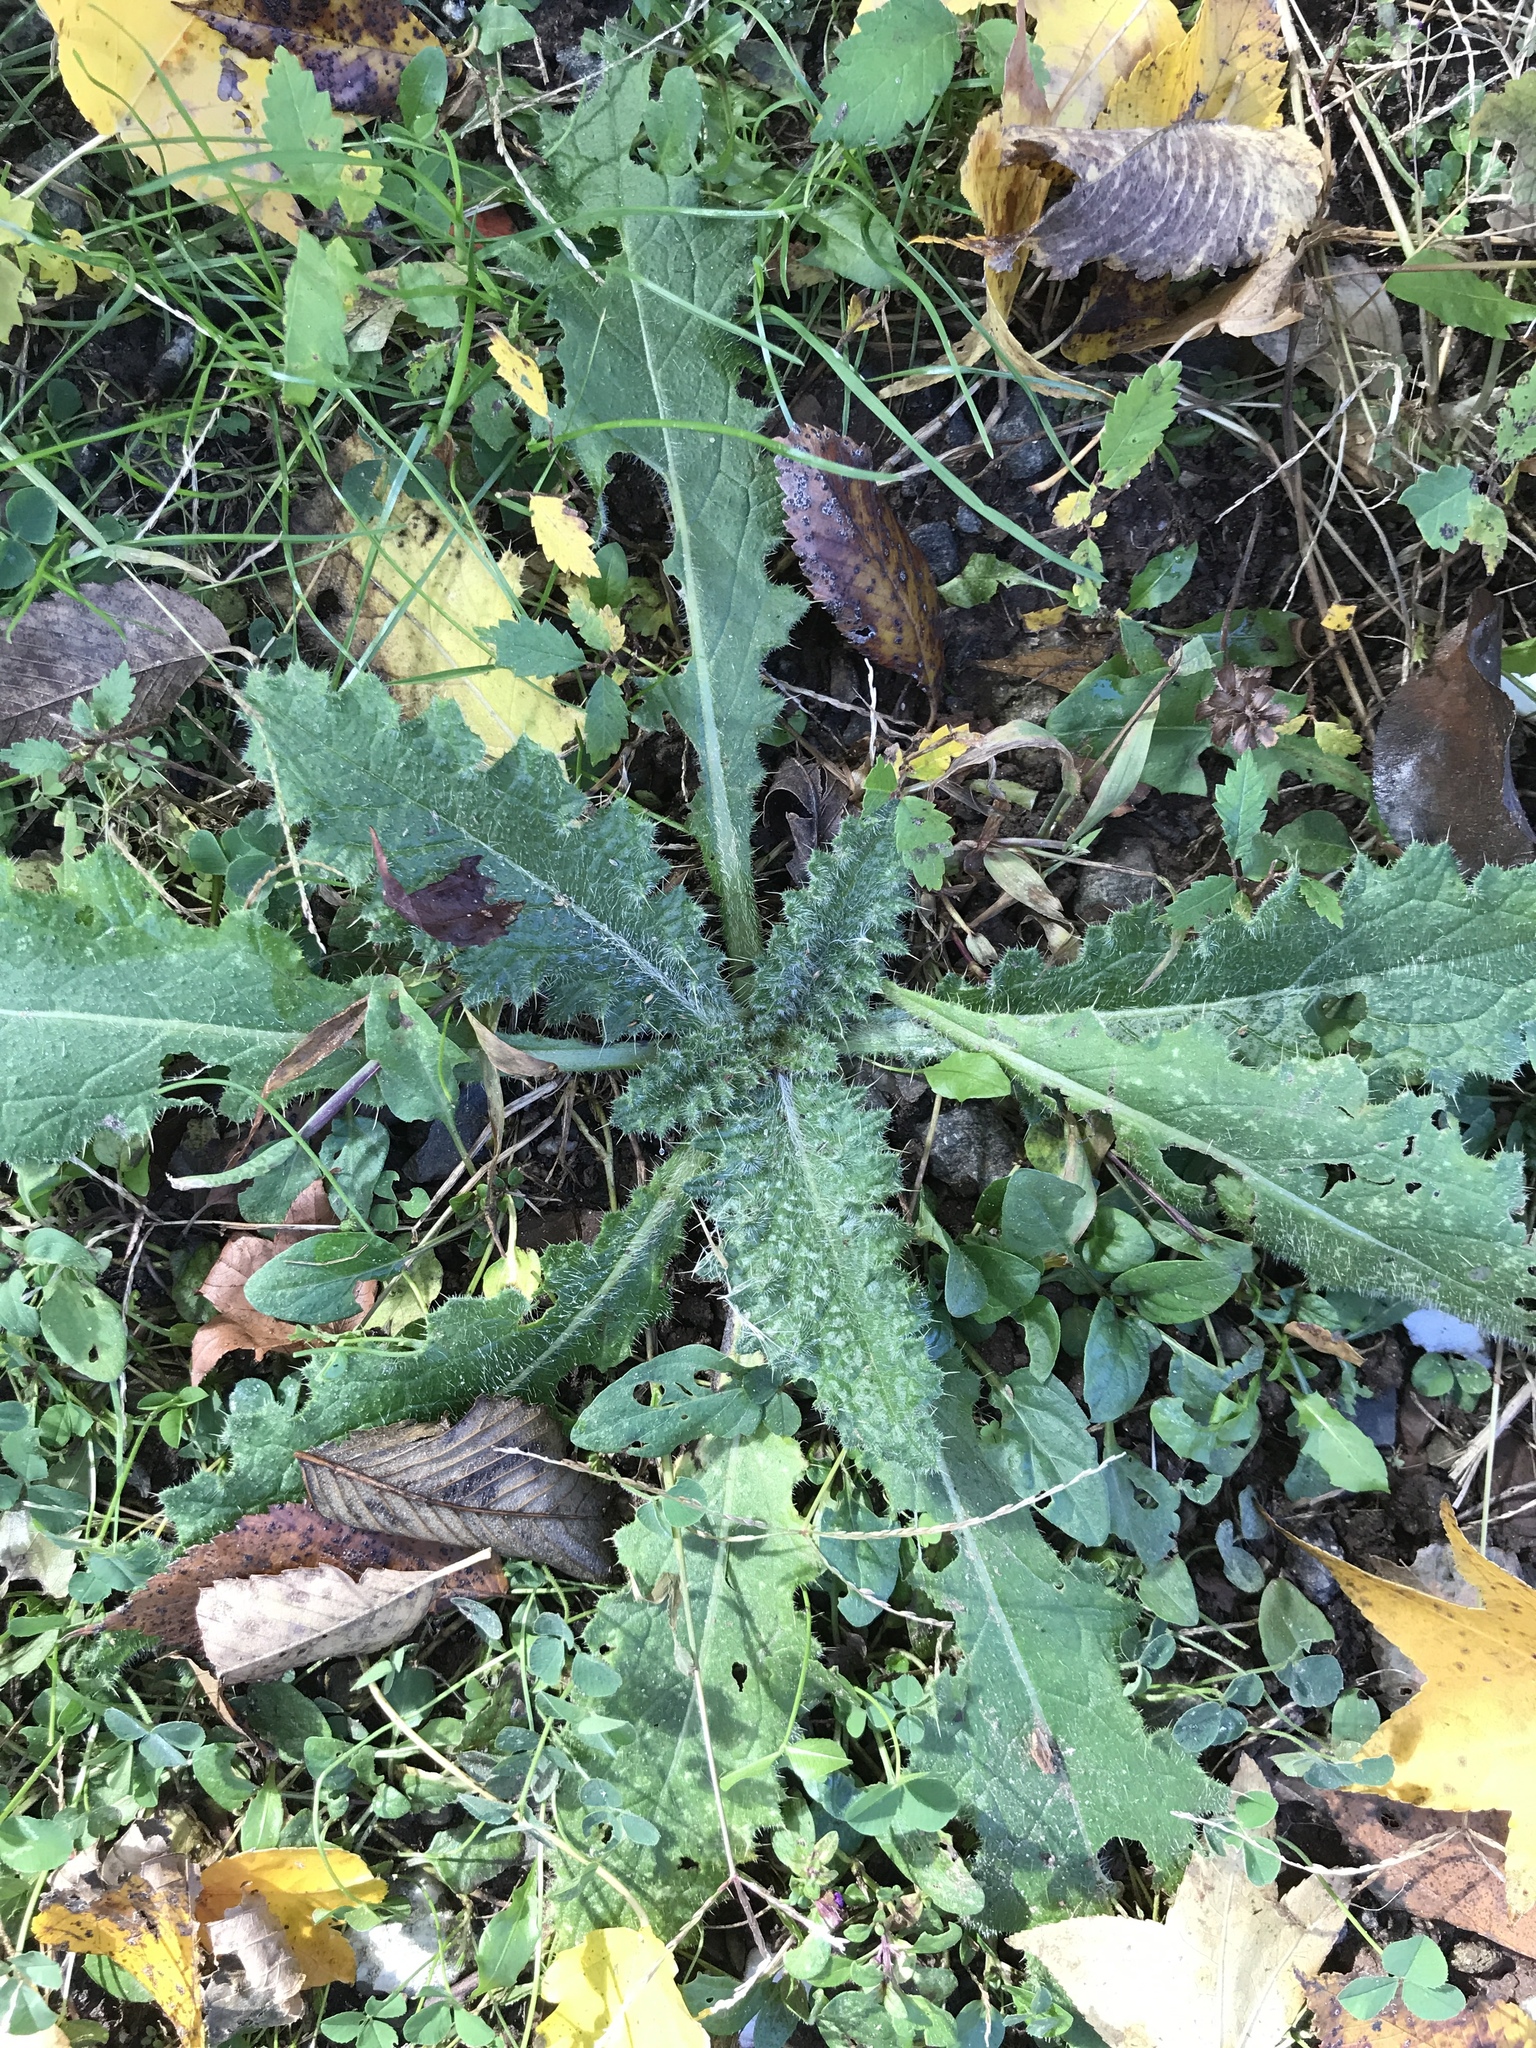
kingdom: Plantae
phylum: Tracheophyta
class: Magnoliopsida
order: Asterales
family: Asteraceae
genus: Cirsium
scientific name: Cirsium vulgare
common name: Bull thistle
